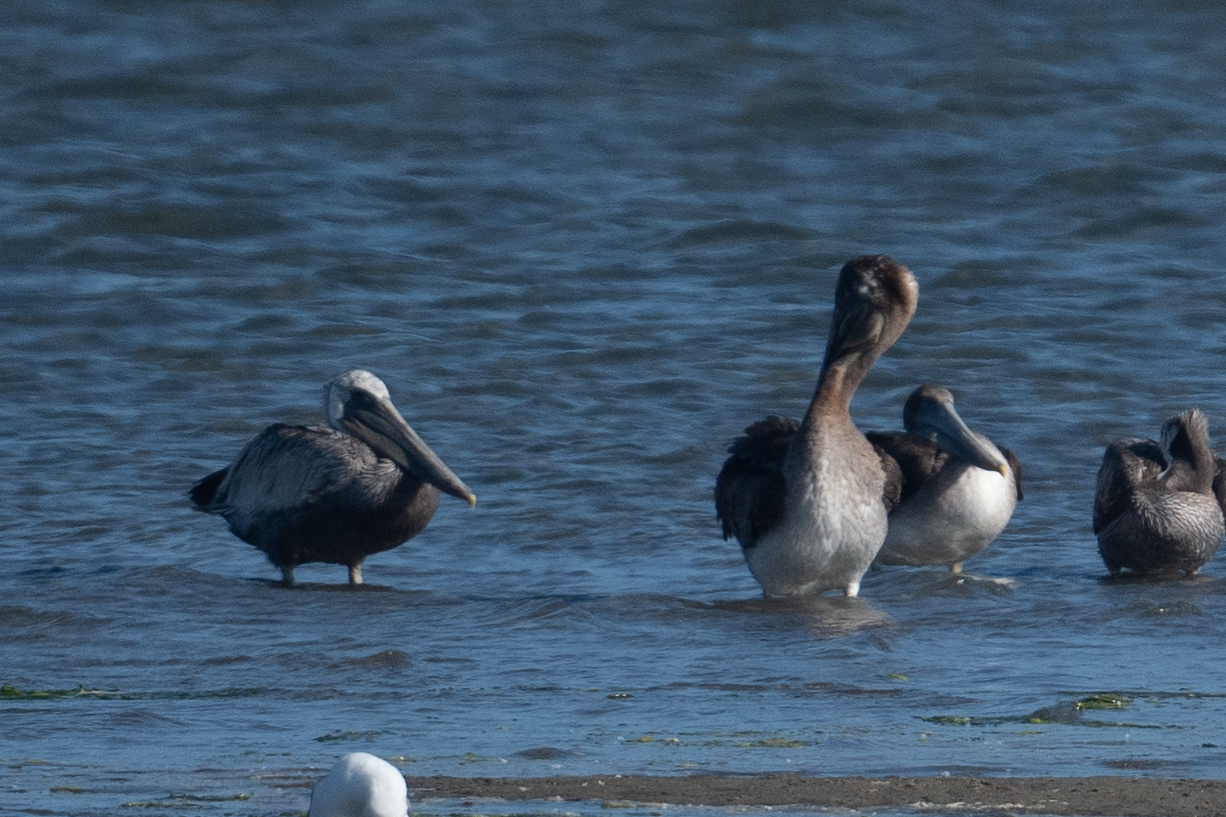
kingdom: Animalia
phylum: Chordata
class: Aves
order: Pelecaniformes
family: Pelecanidae
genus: Pelecanus
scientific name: Pelecanus occidentalis
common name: Brown pelican
